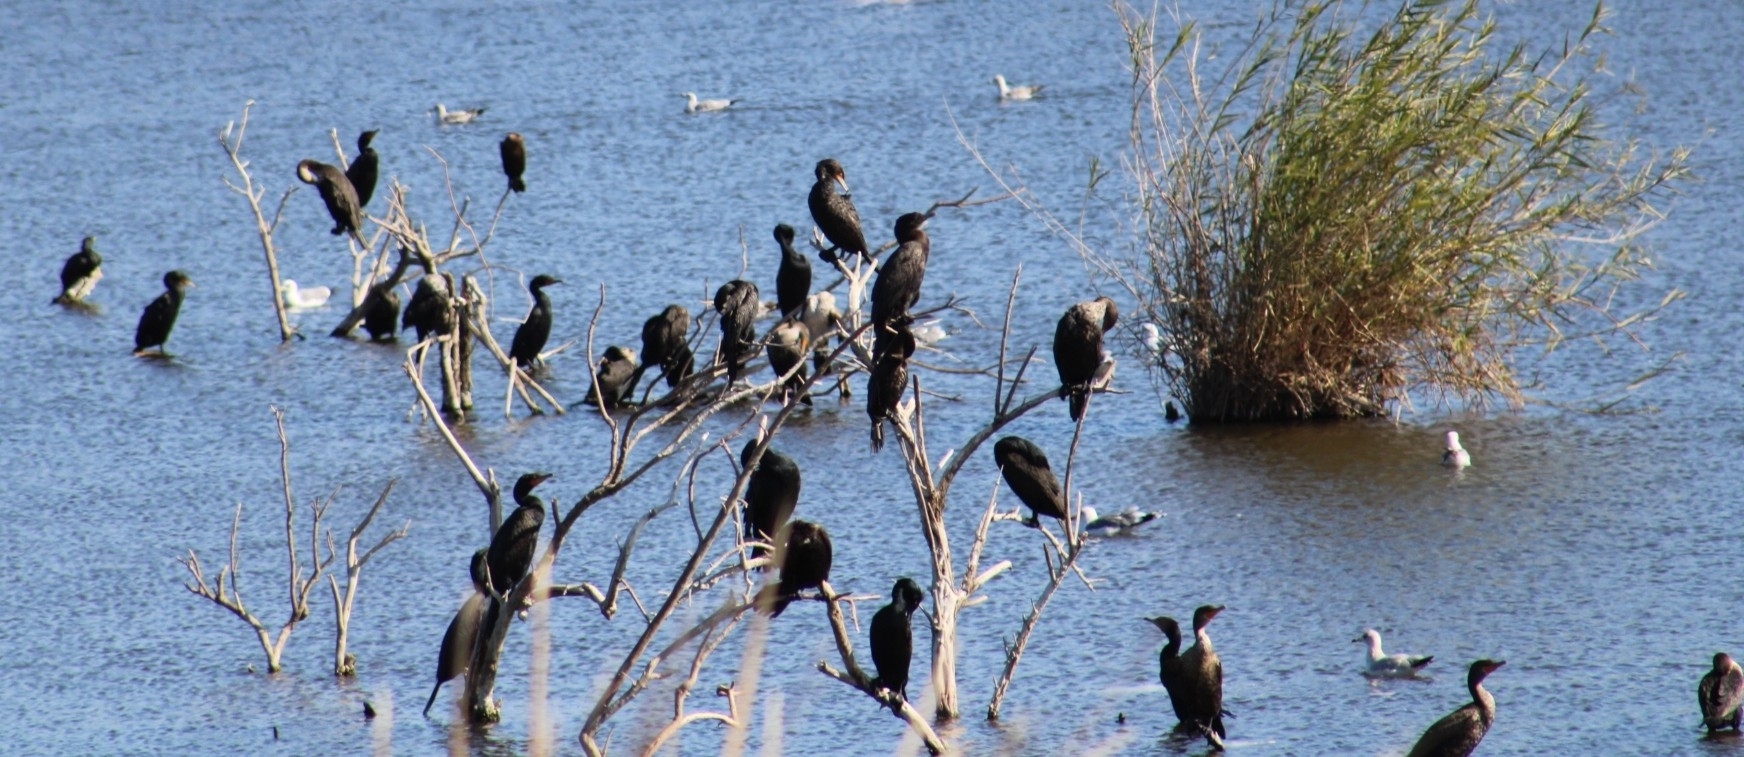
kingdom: Animalia
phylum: Chordata
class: Aves
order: Suliformes
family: Phalacrocoracidae
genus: Phalacrocorax
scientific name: Phalacrocorax auritus
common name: Double-crested cormorant
